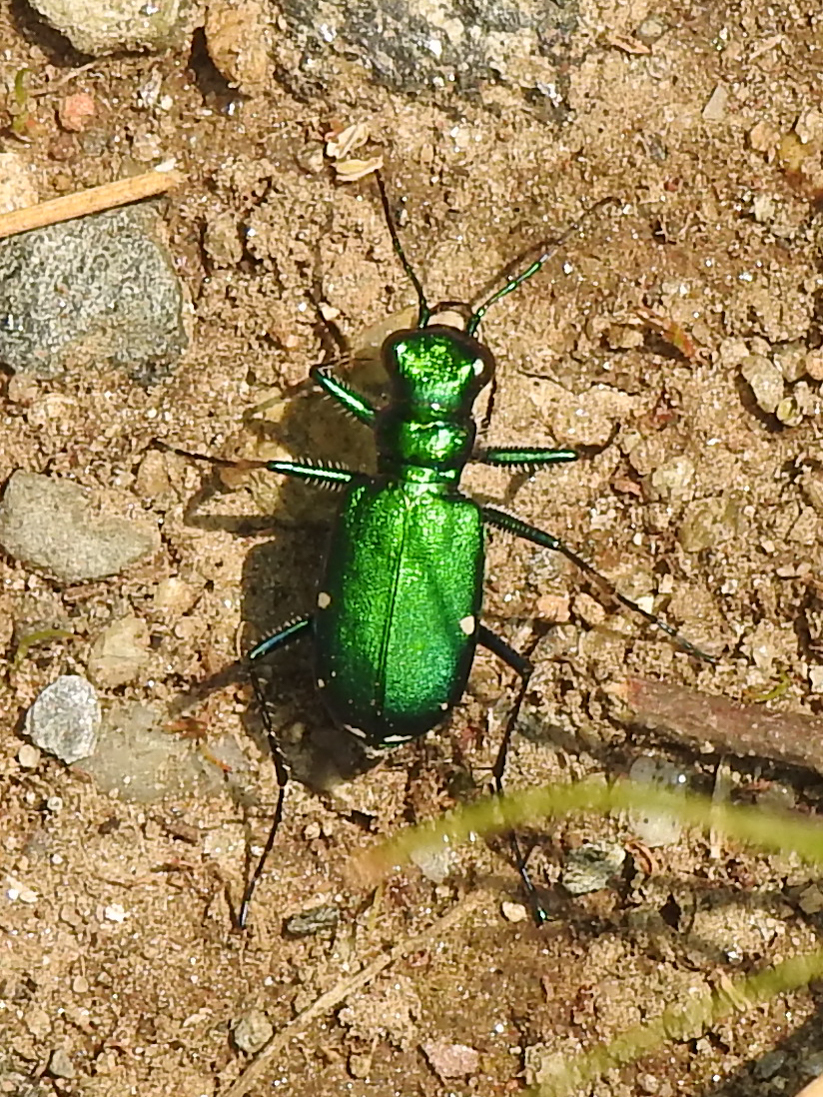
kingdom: Animalia
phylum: Arthropoda
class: Insecta
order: Coleoptera
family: Carabidae
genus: Cicindela
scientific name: Cicindela sexguttata
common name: Six-spotted tiger beetle
